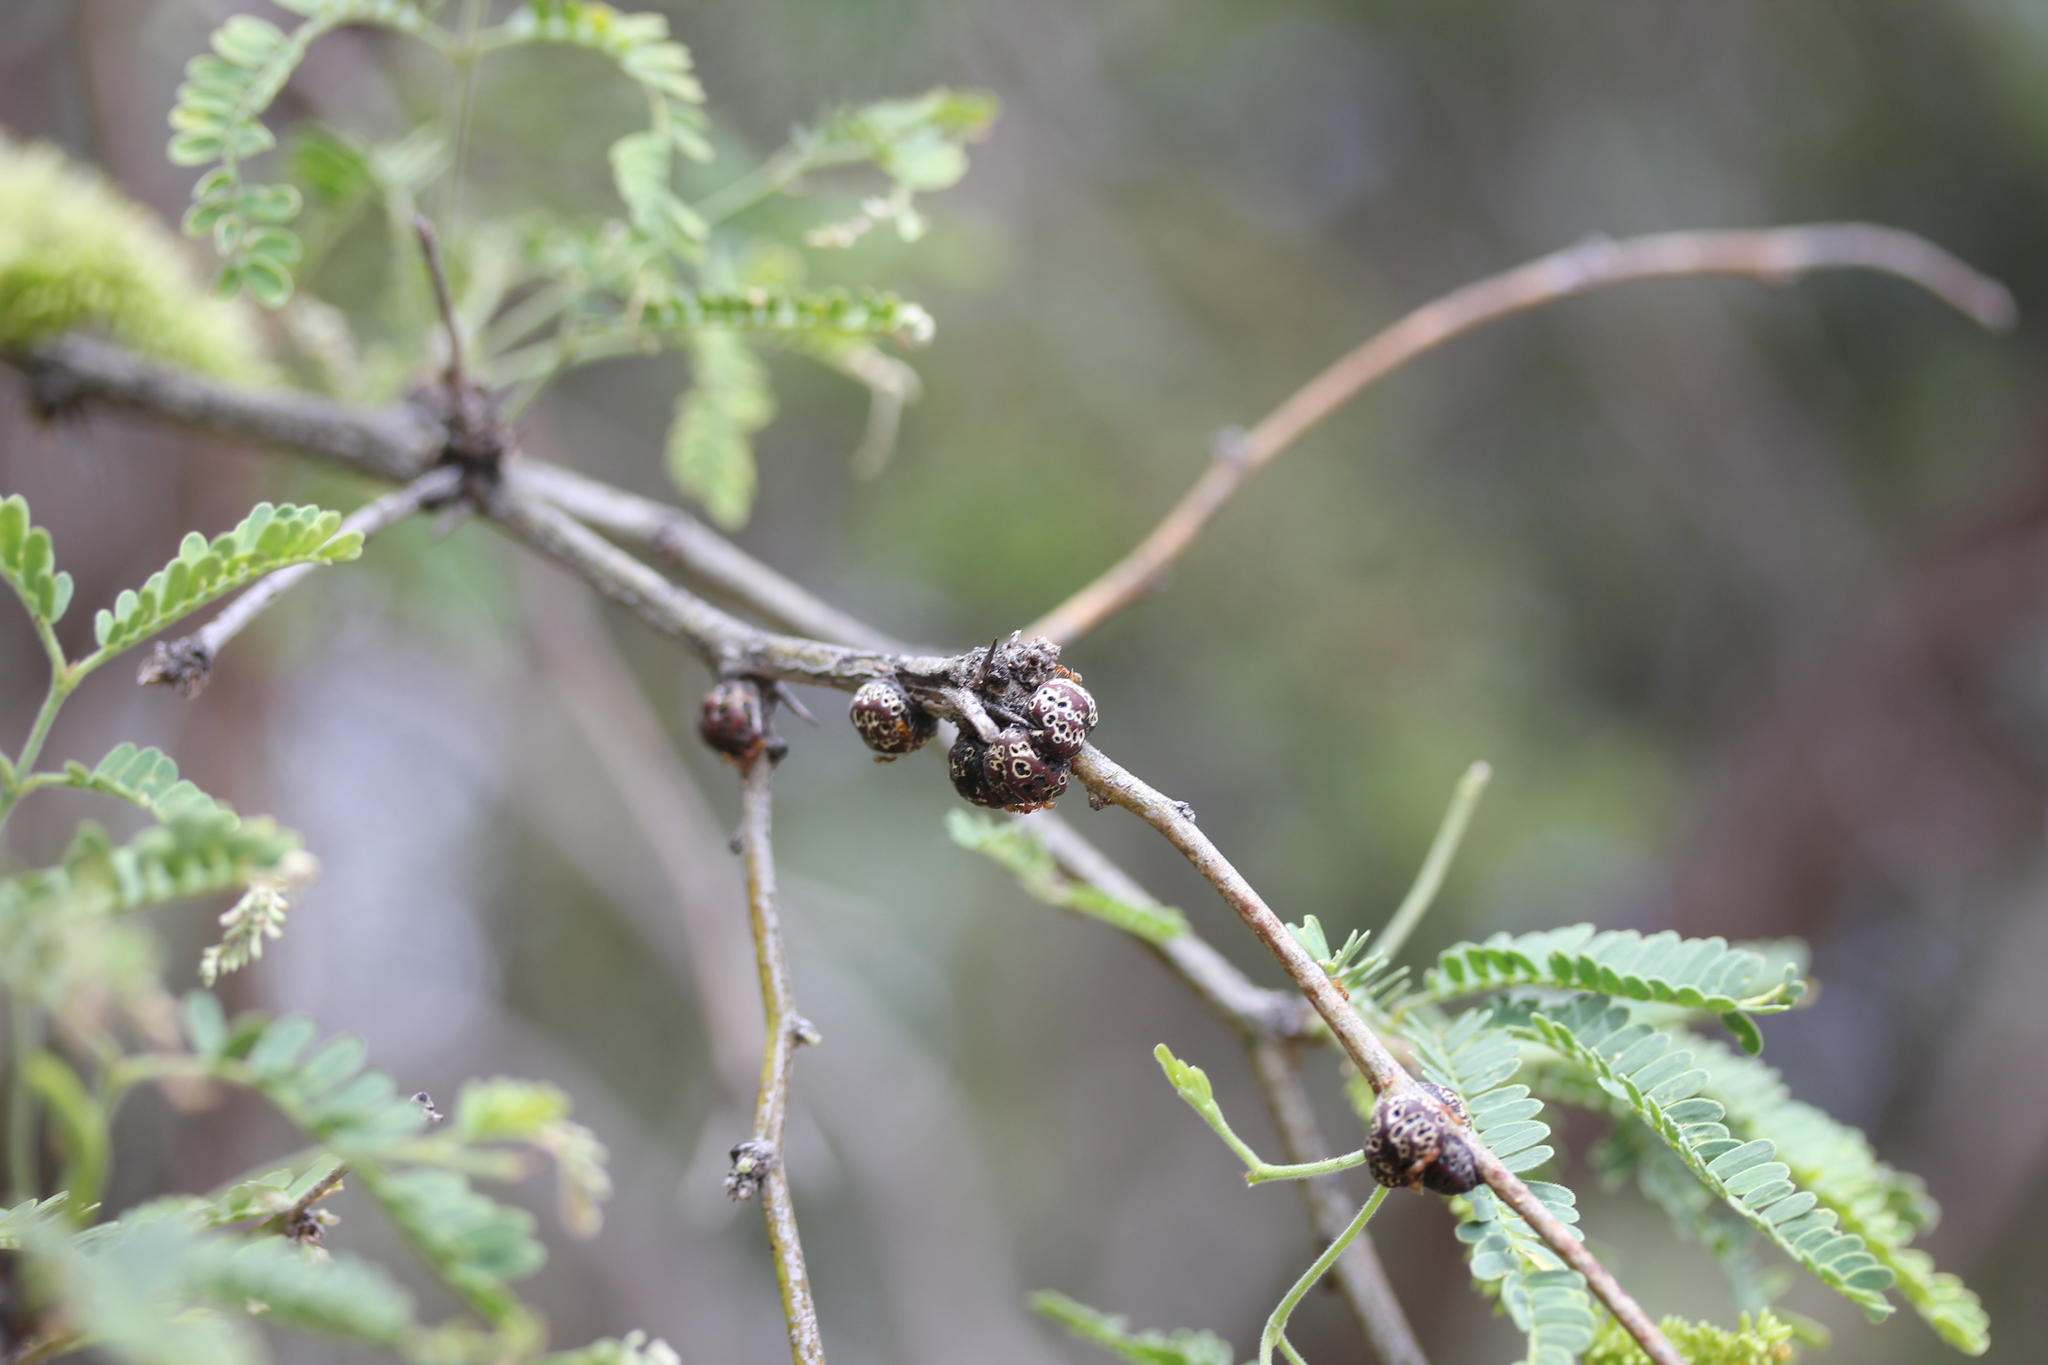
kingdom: Plantae
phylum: Tracheophyta
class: Magnoliopsida
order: Fabales
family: Fabaceae
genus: Prosopis
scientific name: Prosopis velutina
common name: Velvet mesquite
